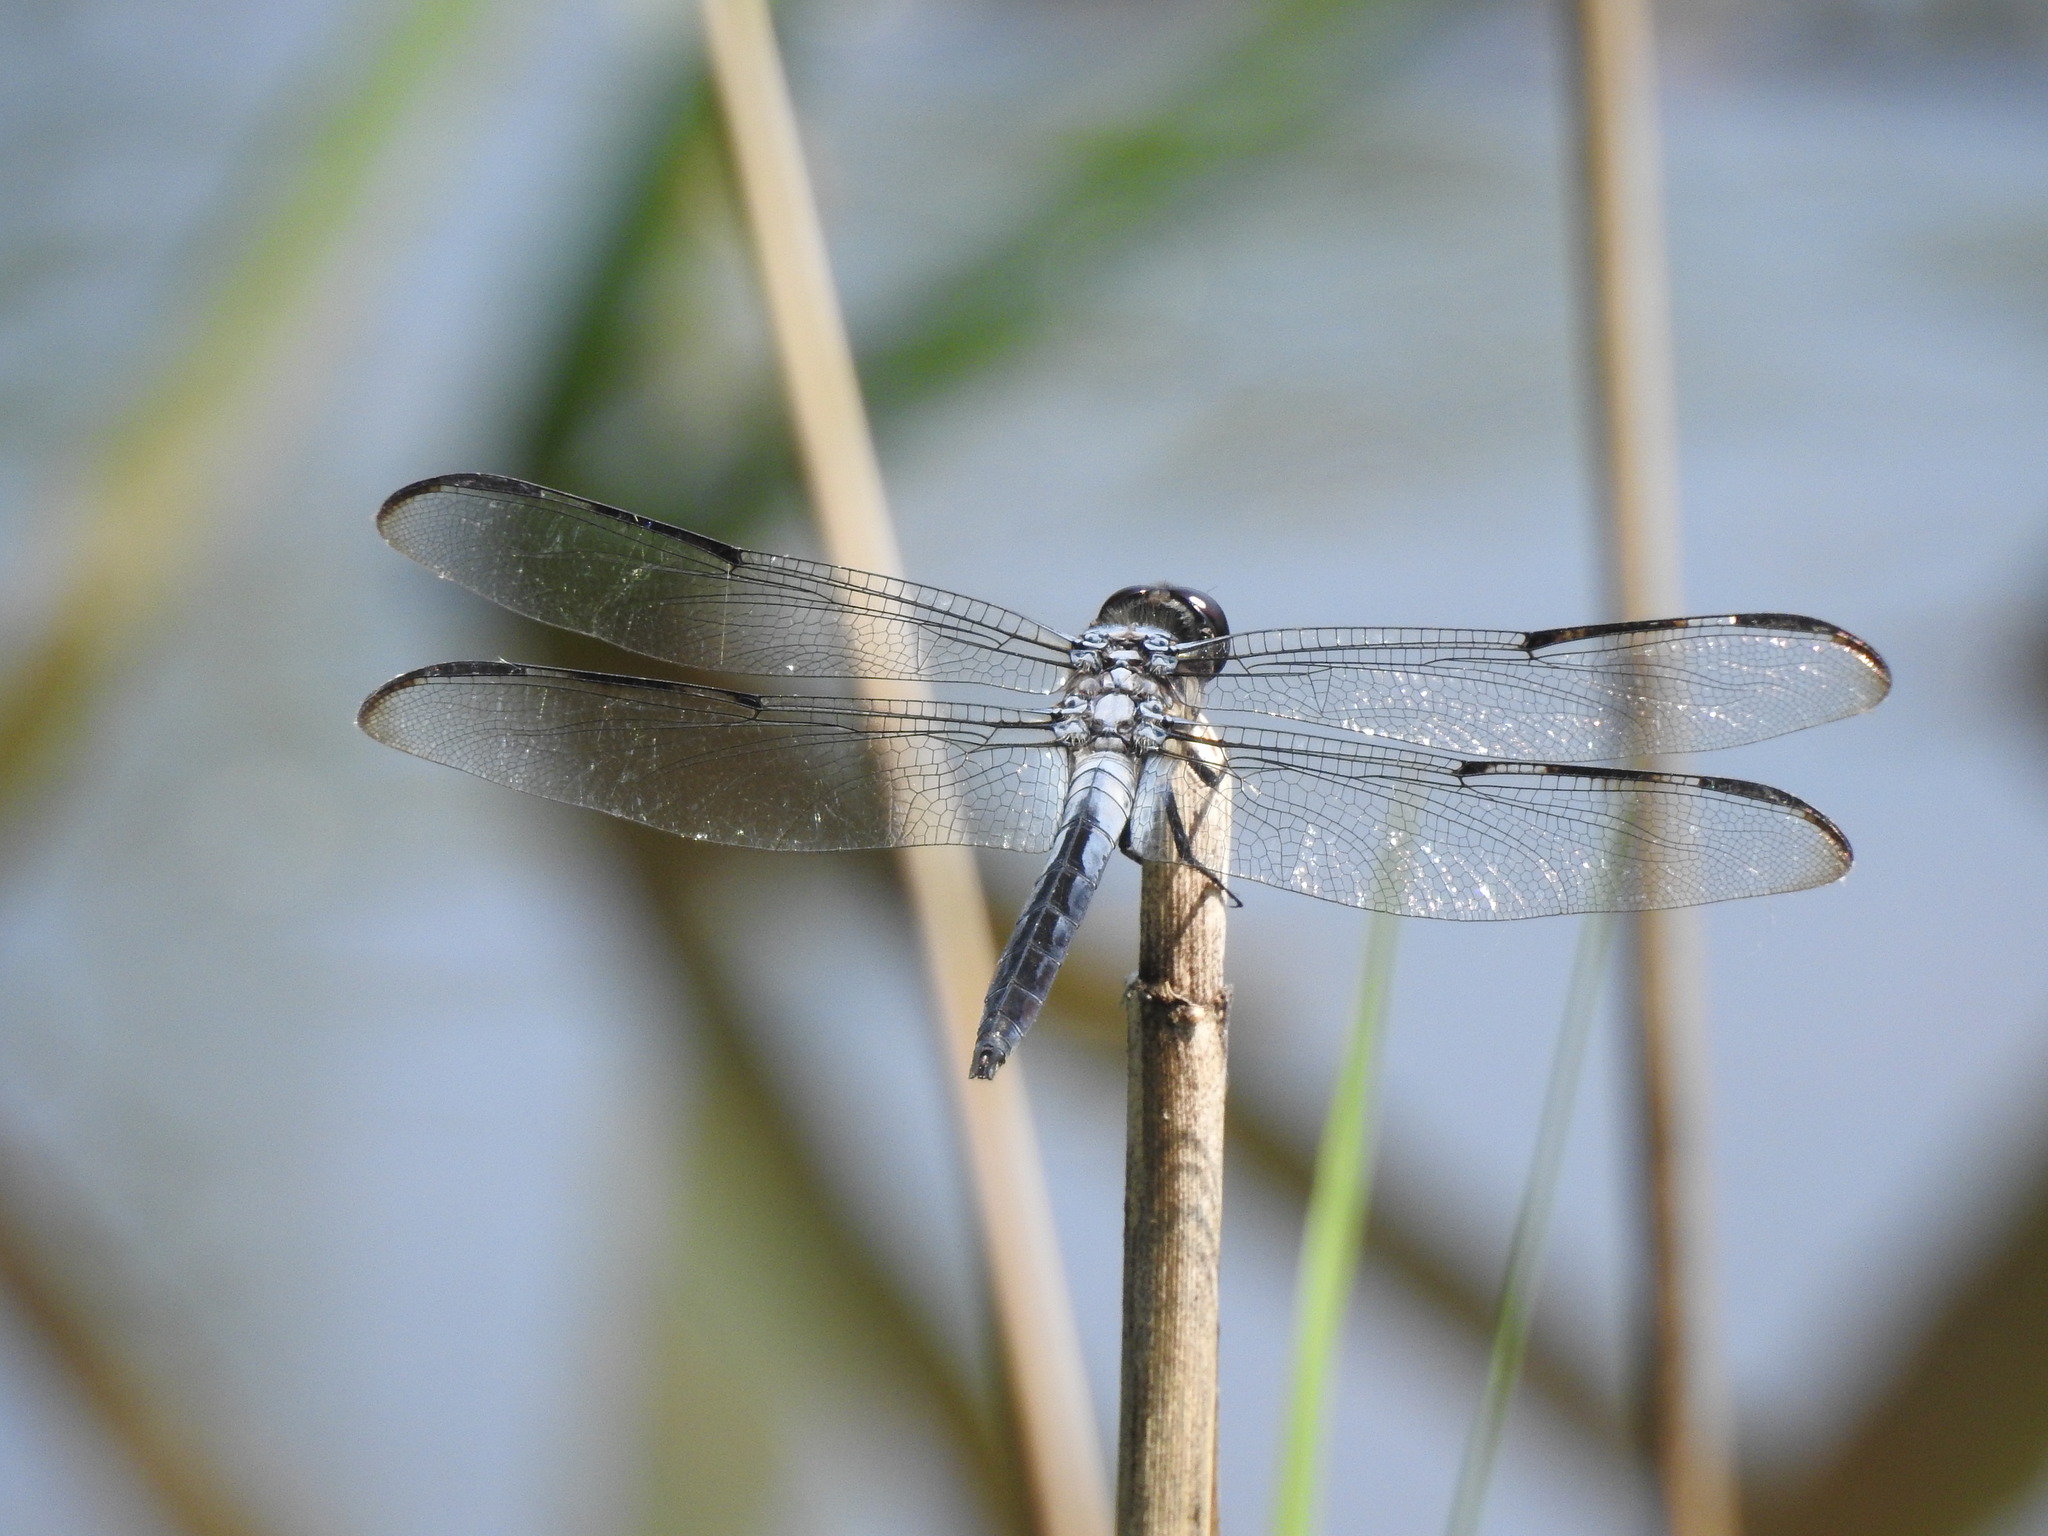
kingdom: Animalia
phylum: Arthropoda
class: Insecta
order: Odonata
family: Libellulidae
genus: Libellula
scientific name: Libellula axilena
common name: Bar-winged skimmer
